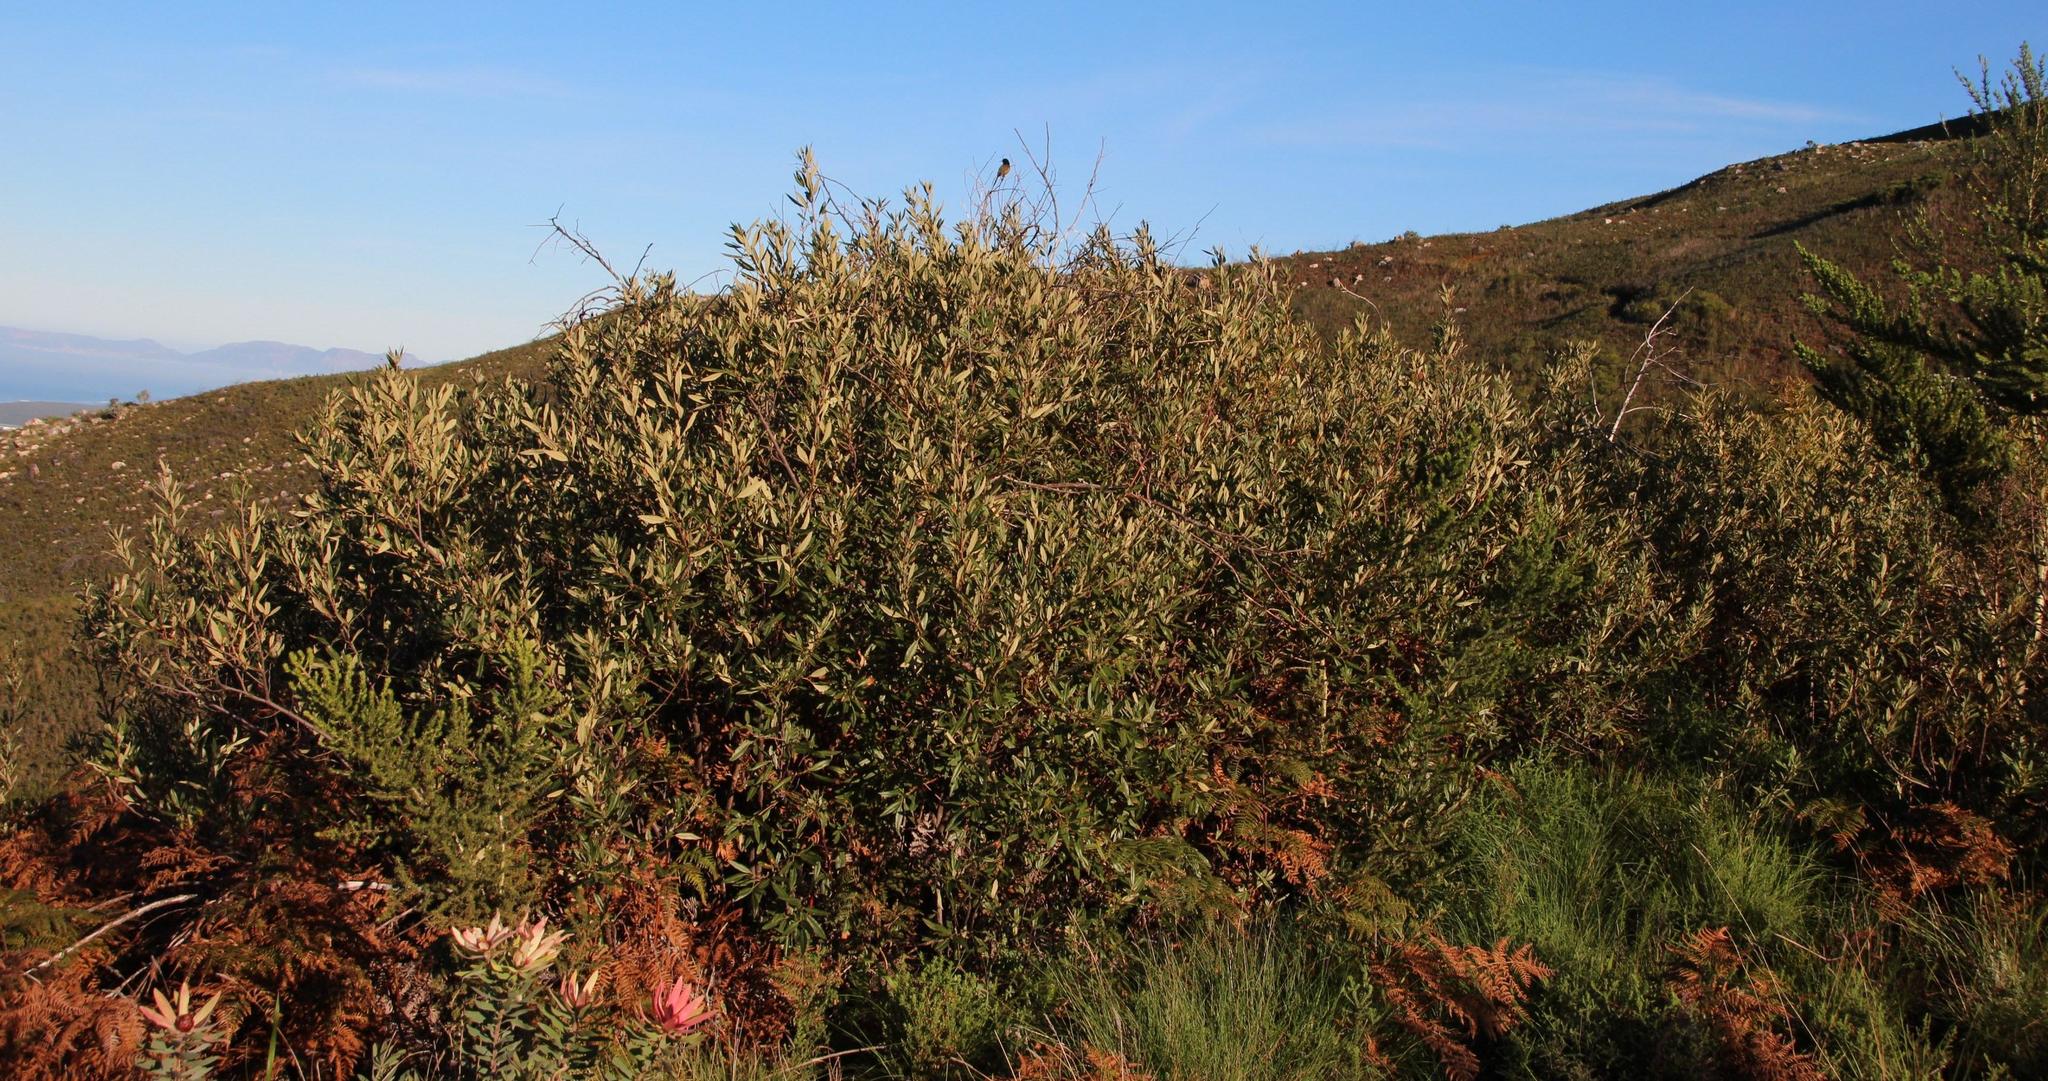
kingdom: Plantae
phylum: Tracheophyta
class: Magnoliopsida
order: Sapindales
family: Anacardiaceae
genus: Searsia
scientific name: Searsia angustifolia
